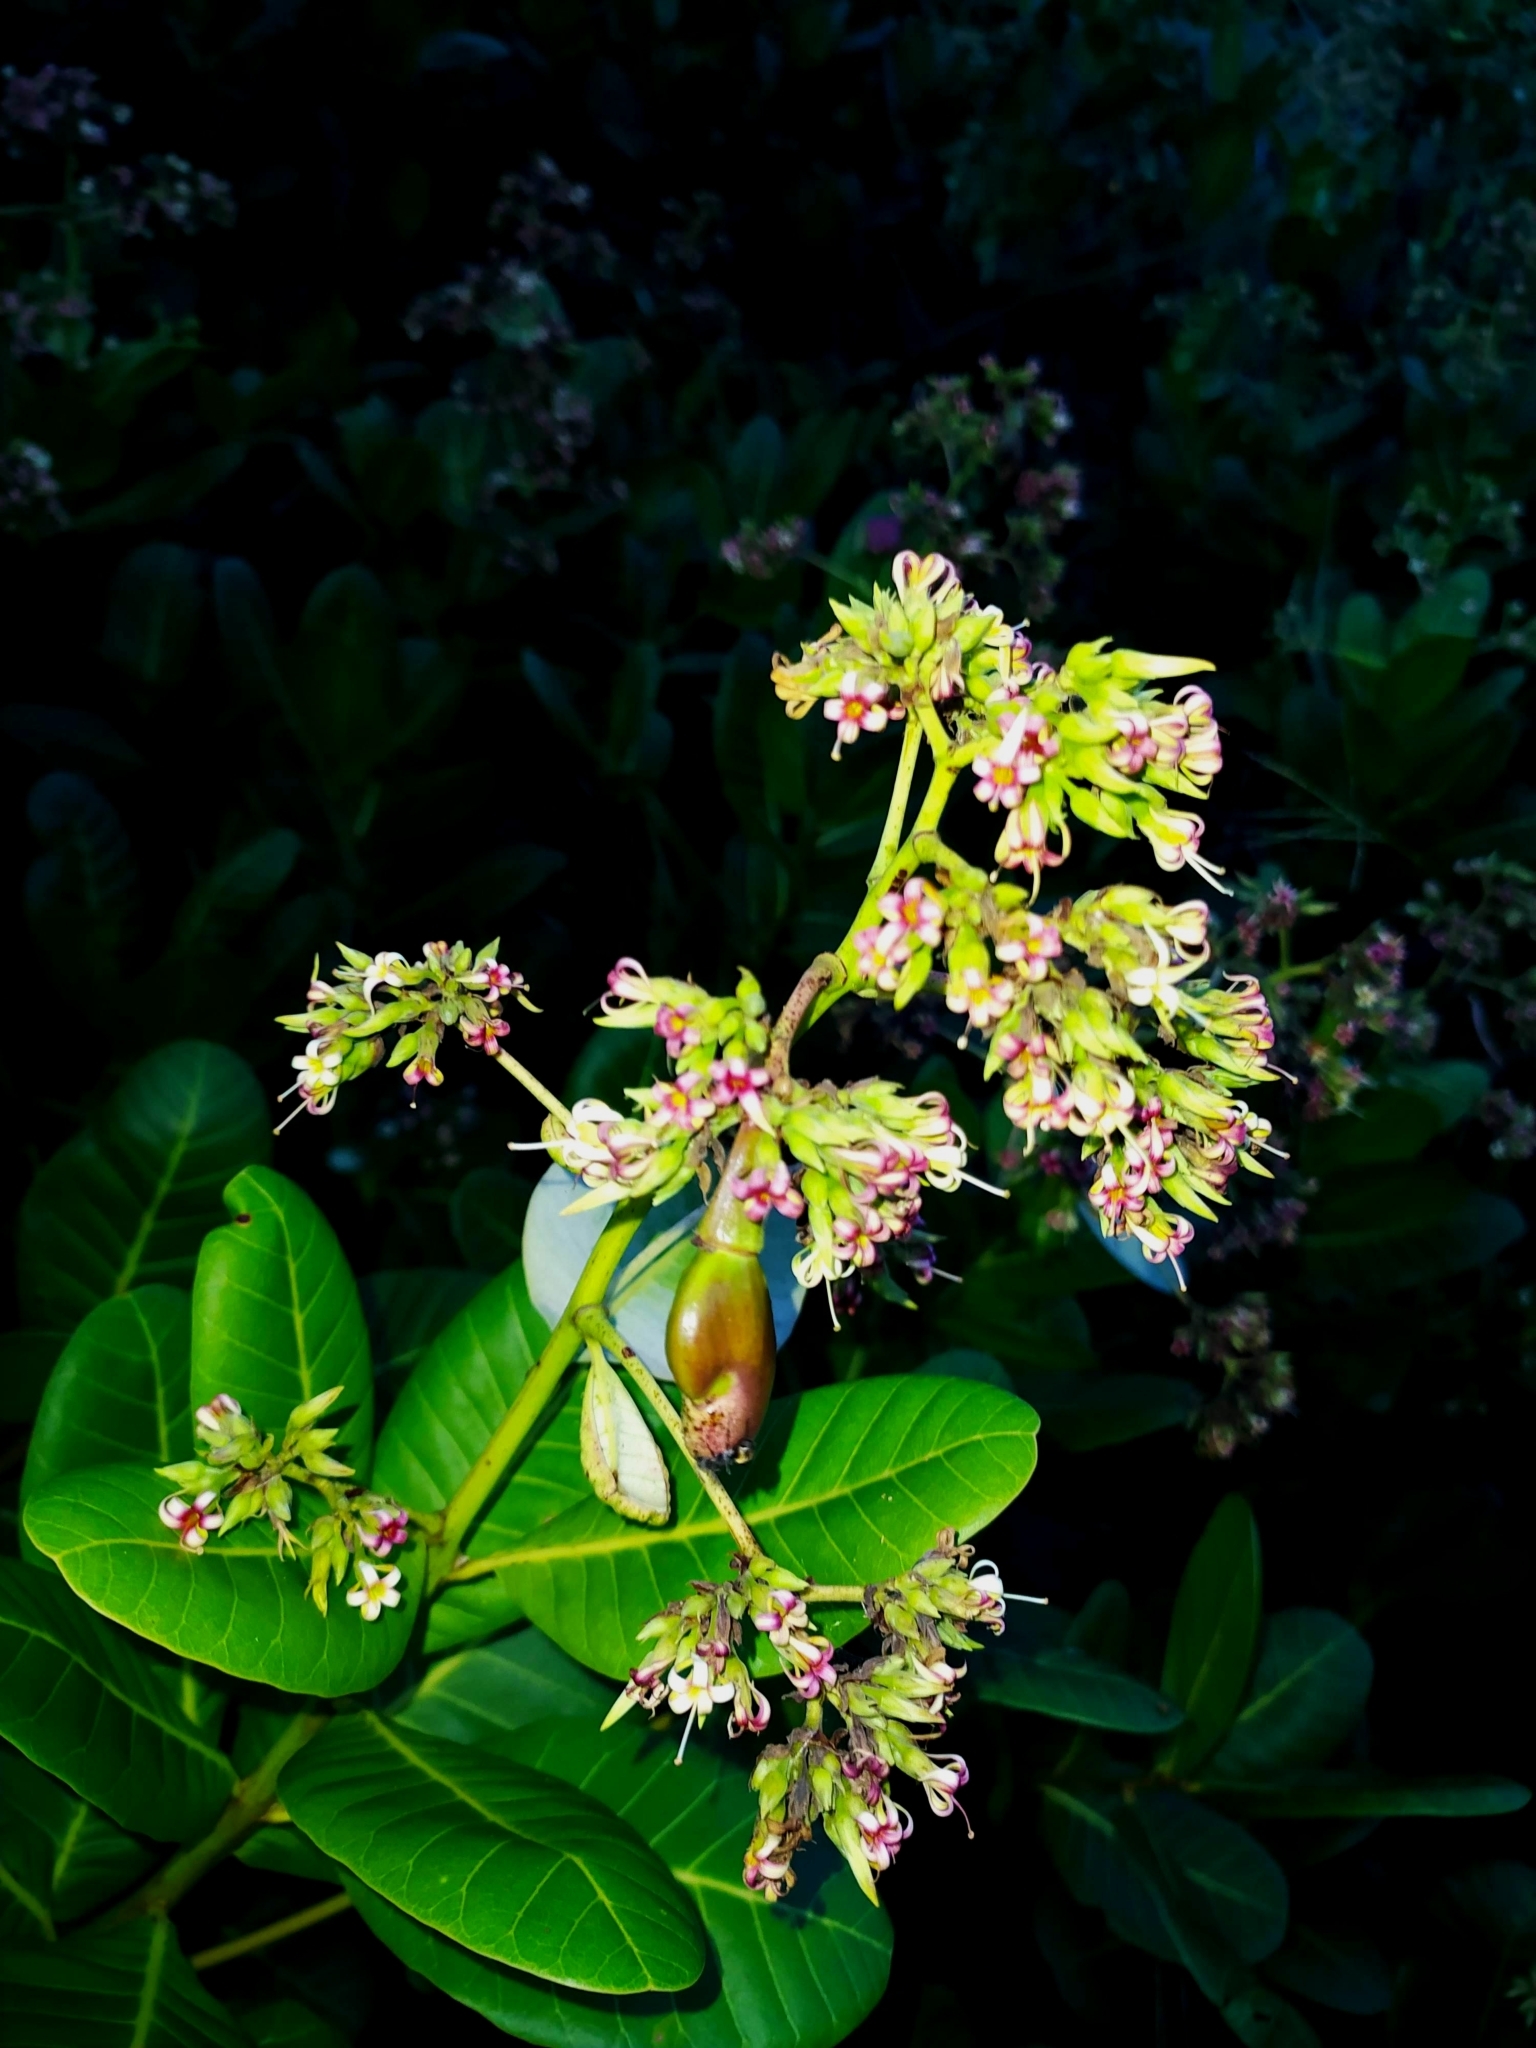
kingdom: Plantae
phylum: Tracheophyta
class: Magnoliopsida
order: Sapindales
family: Anacardiaceae
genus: Anacardium
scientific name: Anacardium occidentale
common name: Cashew
